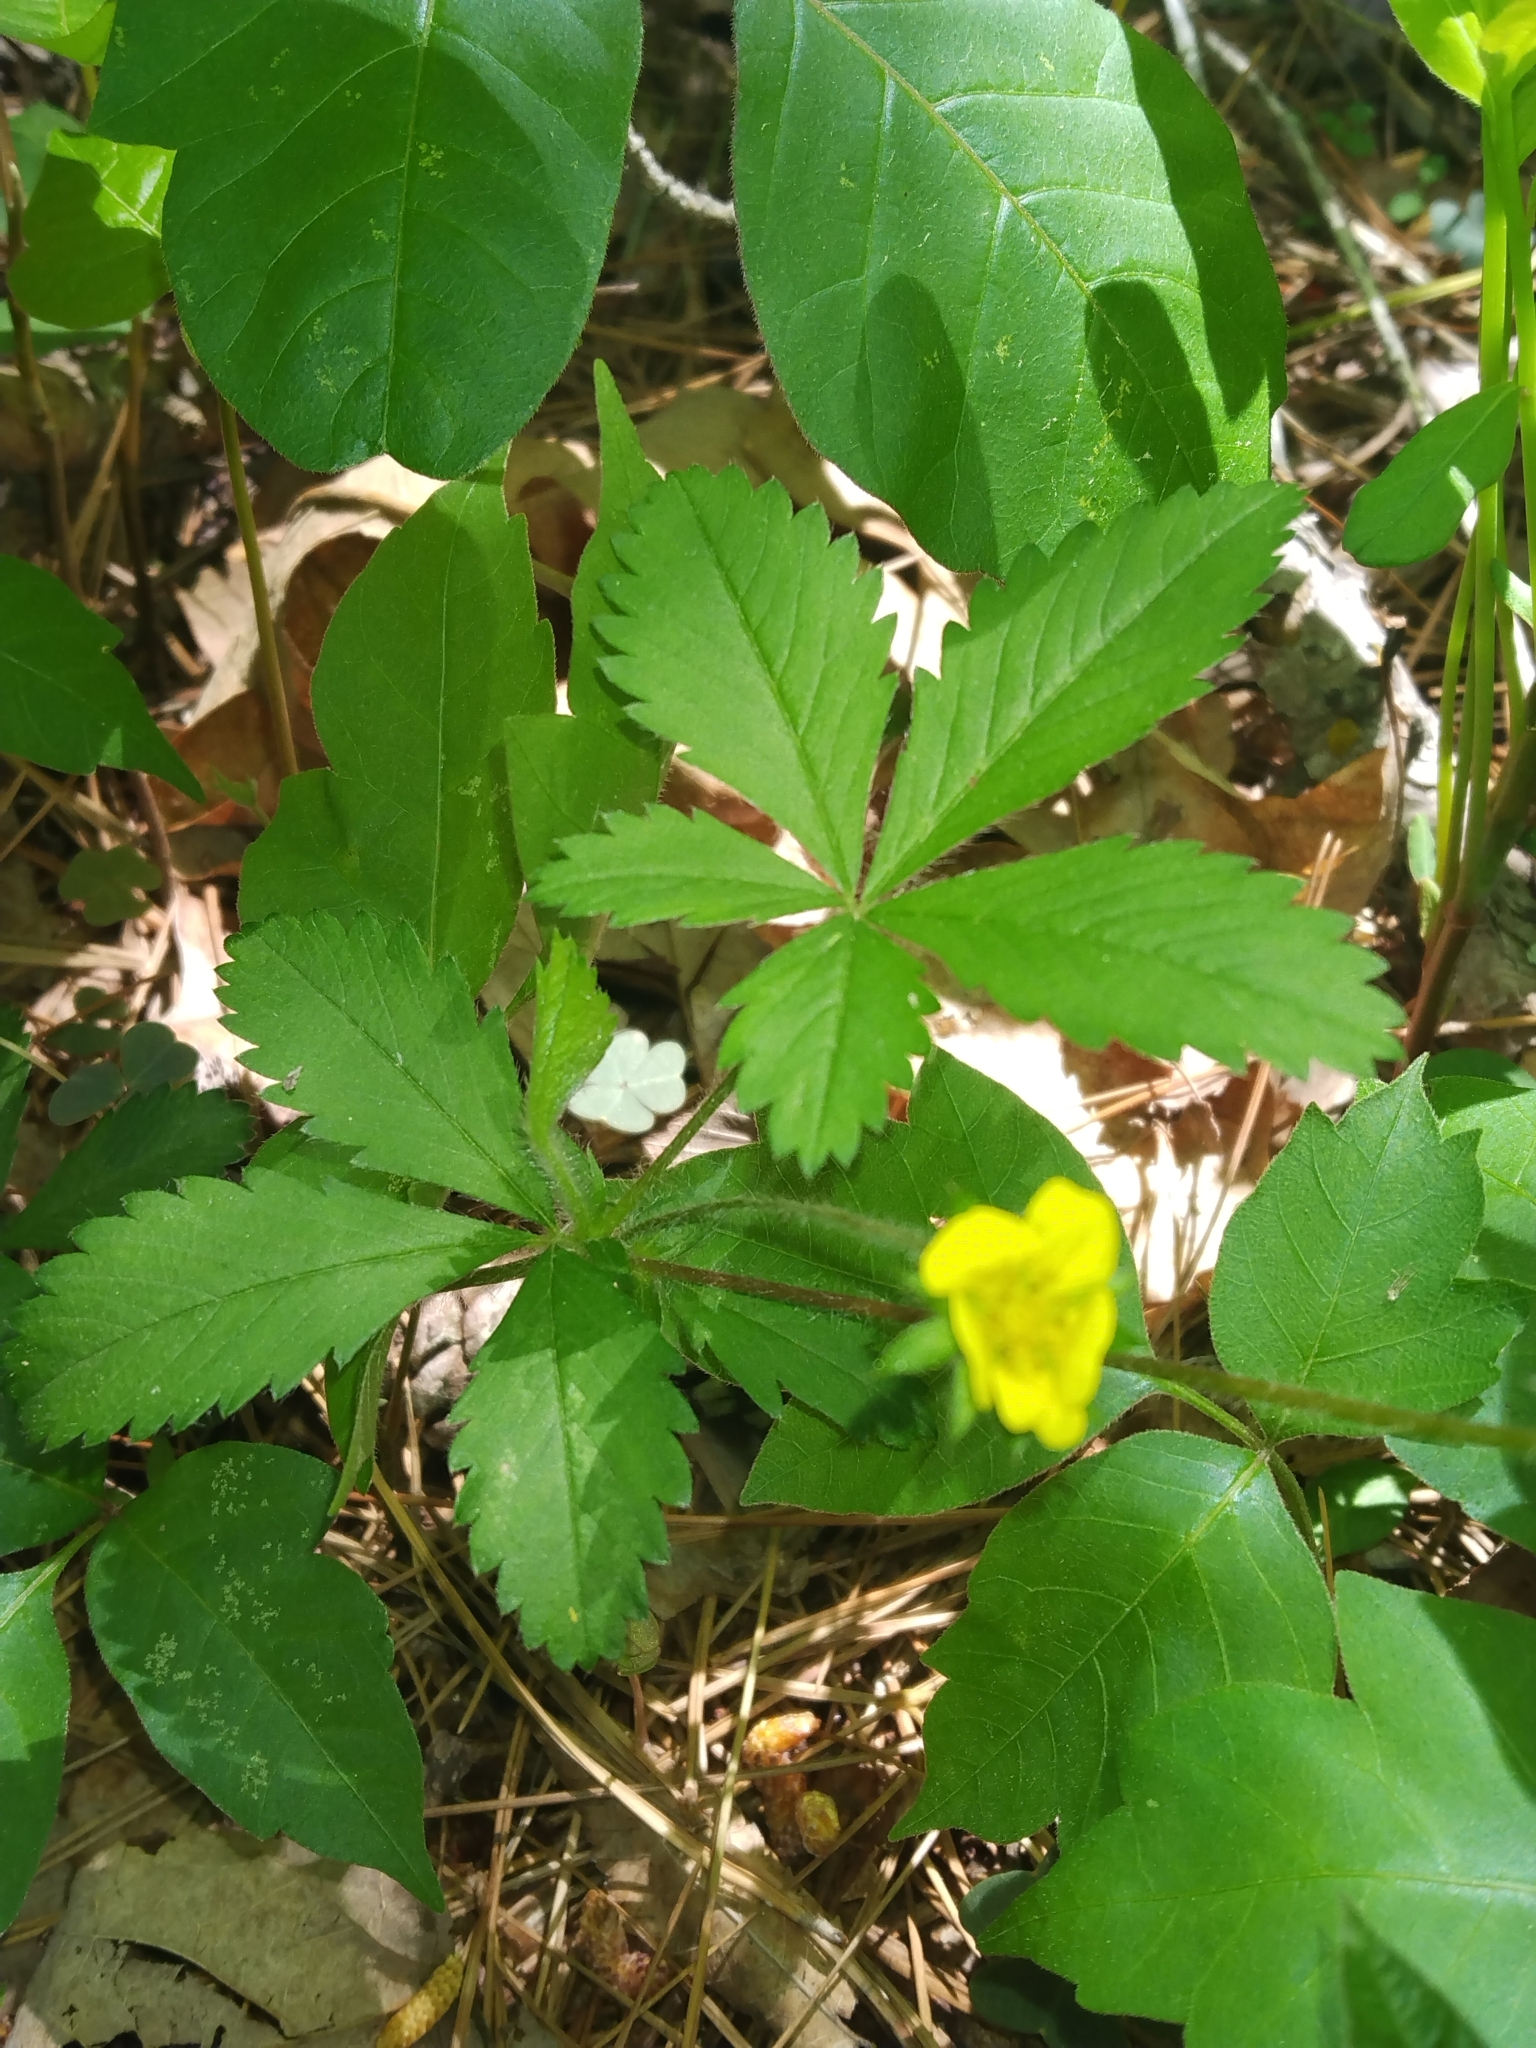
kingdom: Plantae
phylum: Tracheophyta
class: Magnoliopsida
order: Rosales
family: Rosaceae
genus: Potentilla
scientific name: Potentilla simplex
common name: Old field cinquefoil
